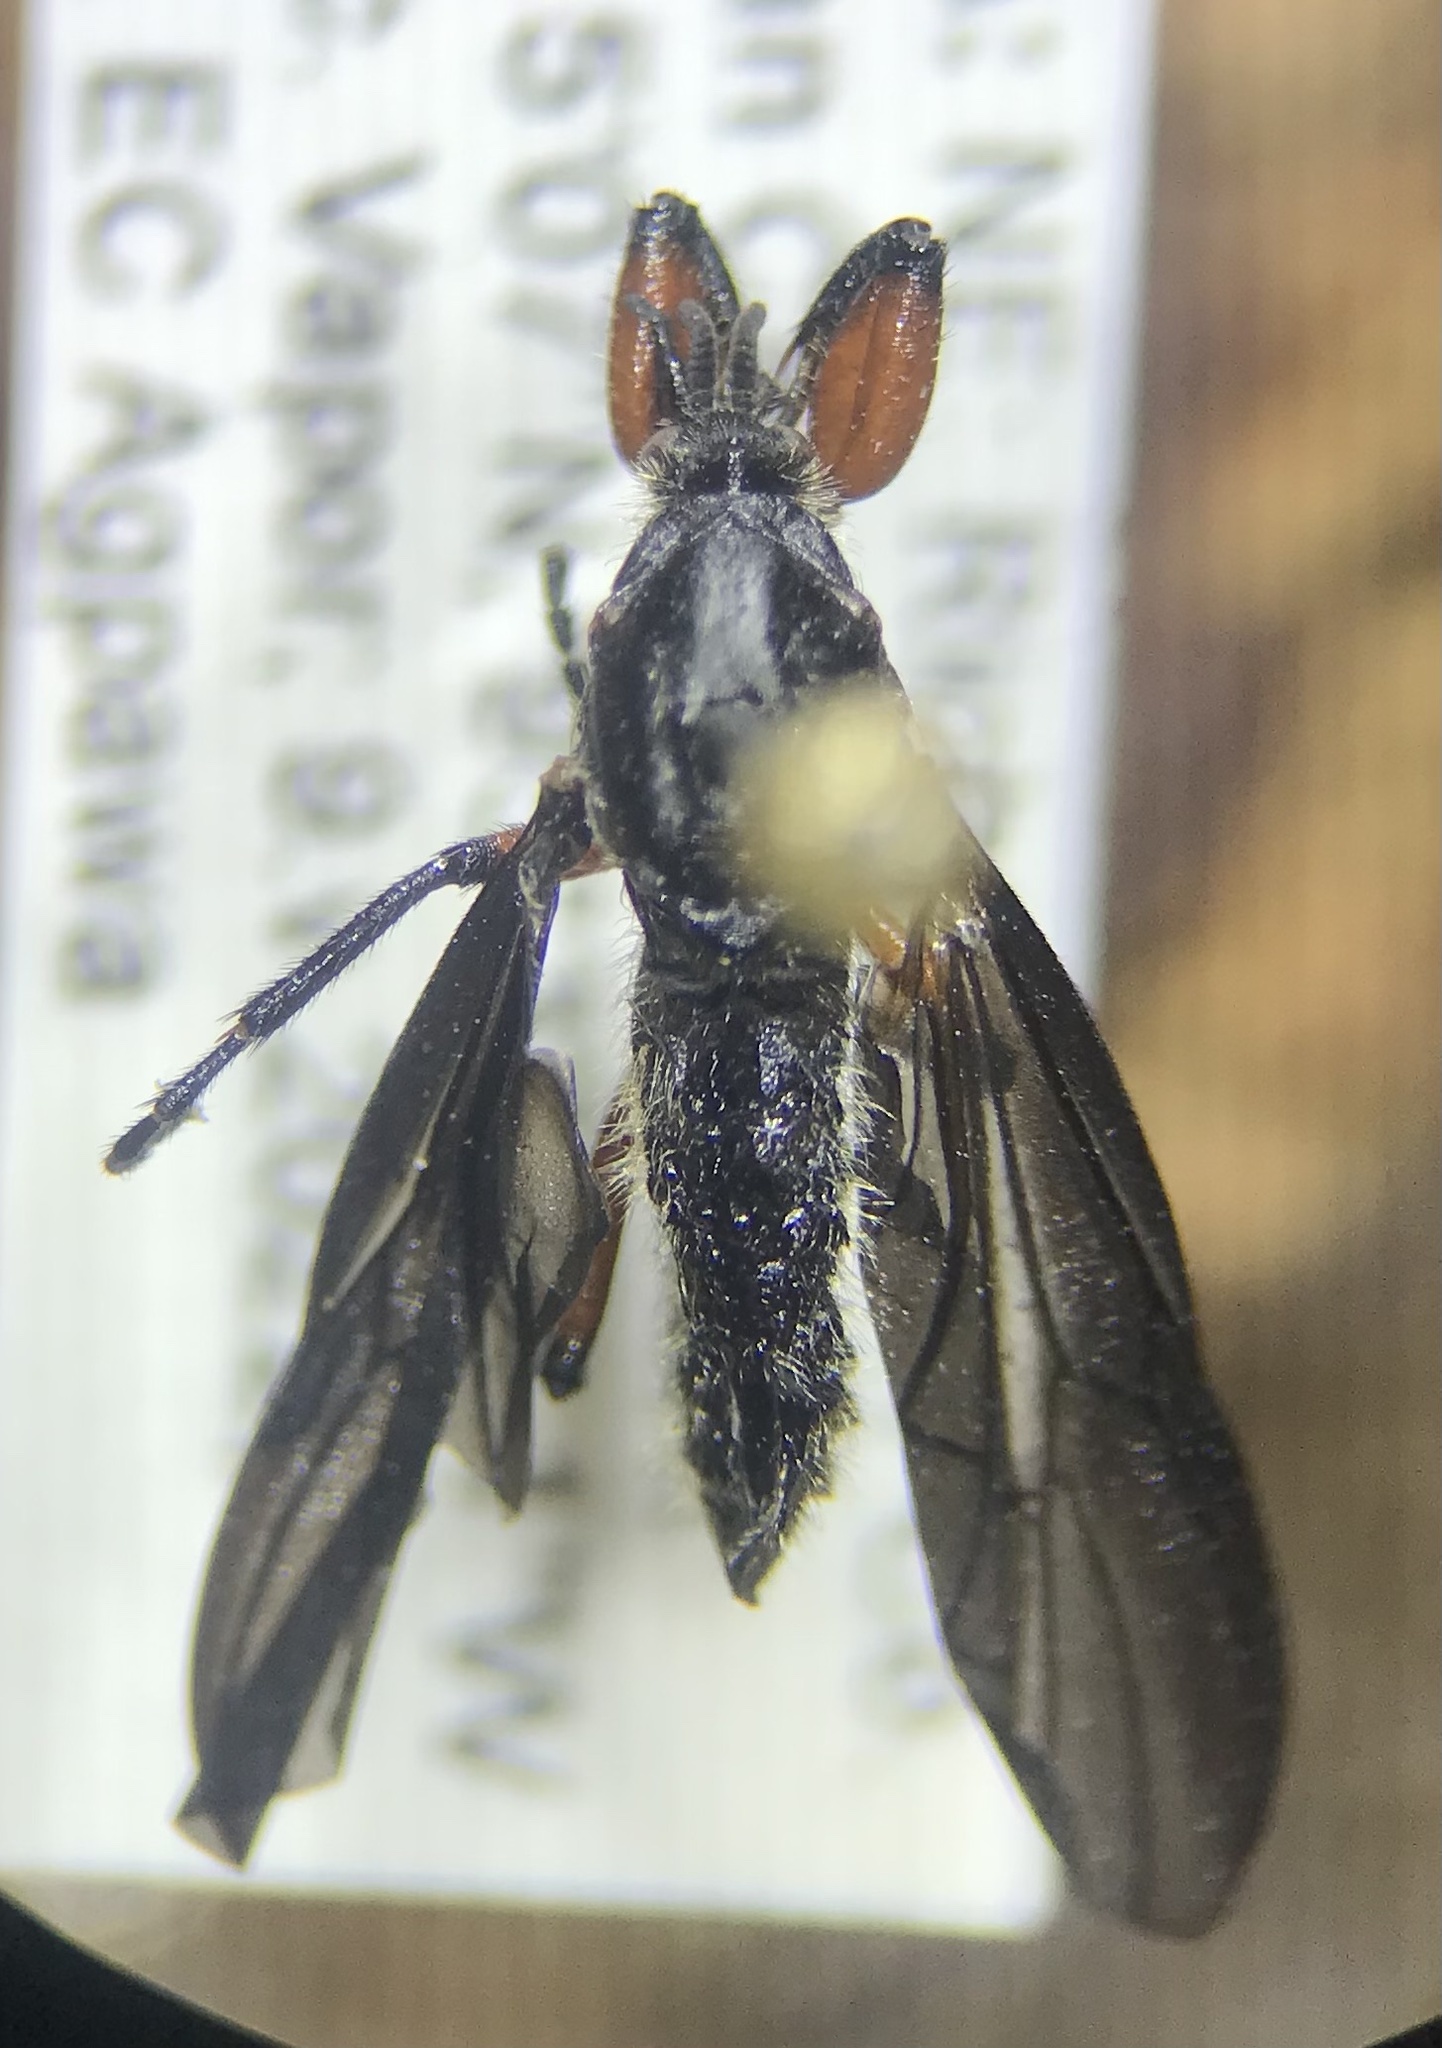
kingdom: Animalia
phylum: Arthropoda
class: Insecta
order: Diptera
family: Bibionidae
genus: Bibio
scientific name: Bibio femoratus
